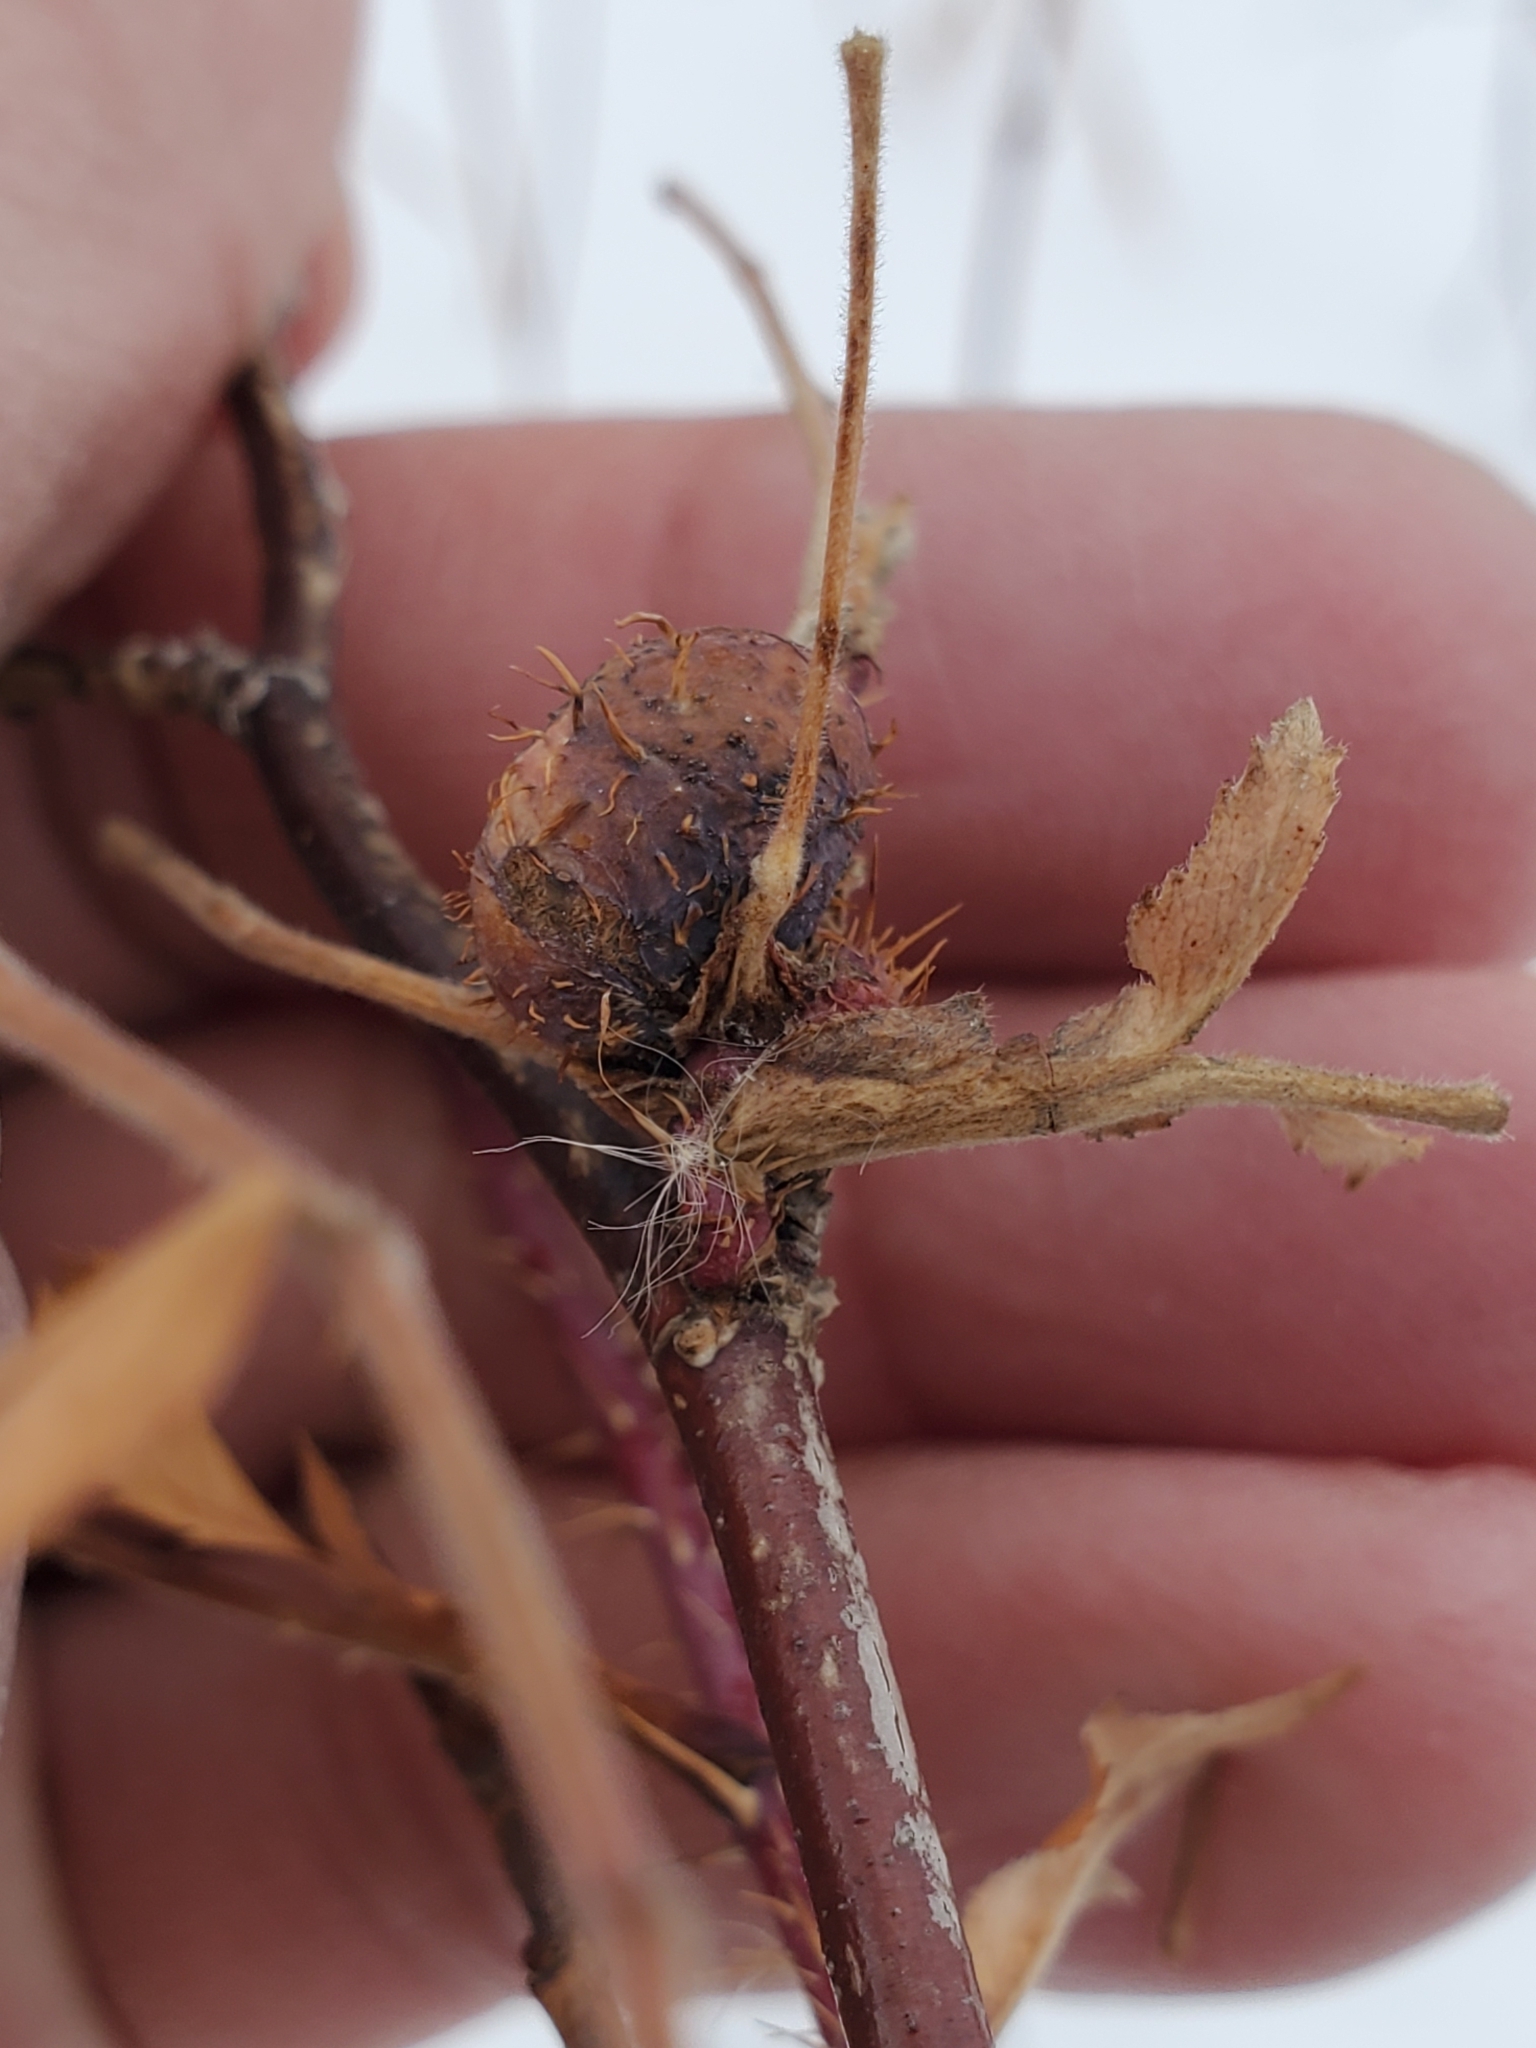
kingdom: Animalia
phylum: Arthropoda
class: Insecta
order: Hymenoptera
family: Cynipidae
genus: Diplolepis
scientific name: Diplolepis spinosa
